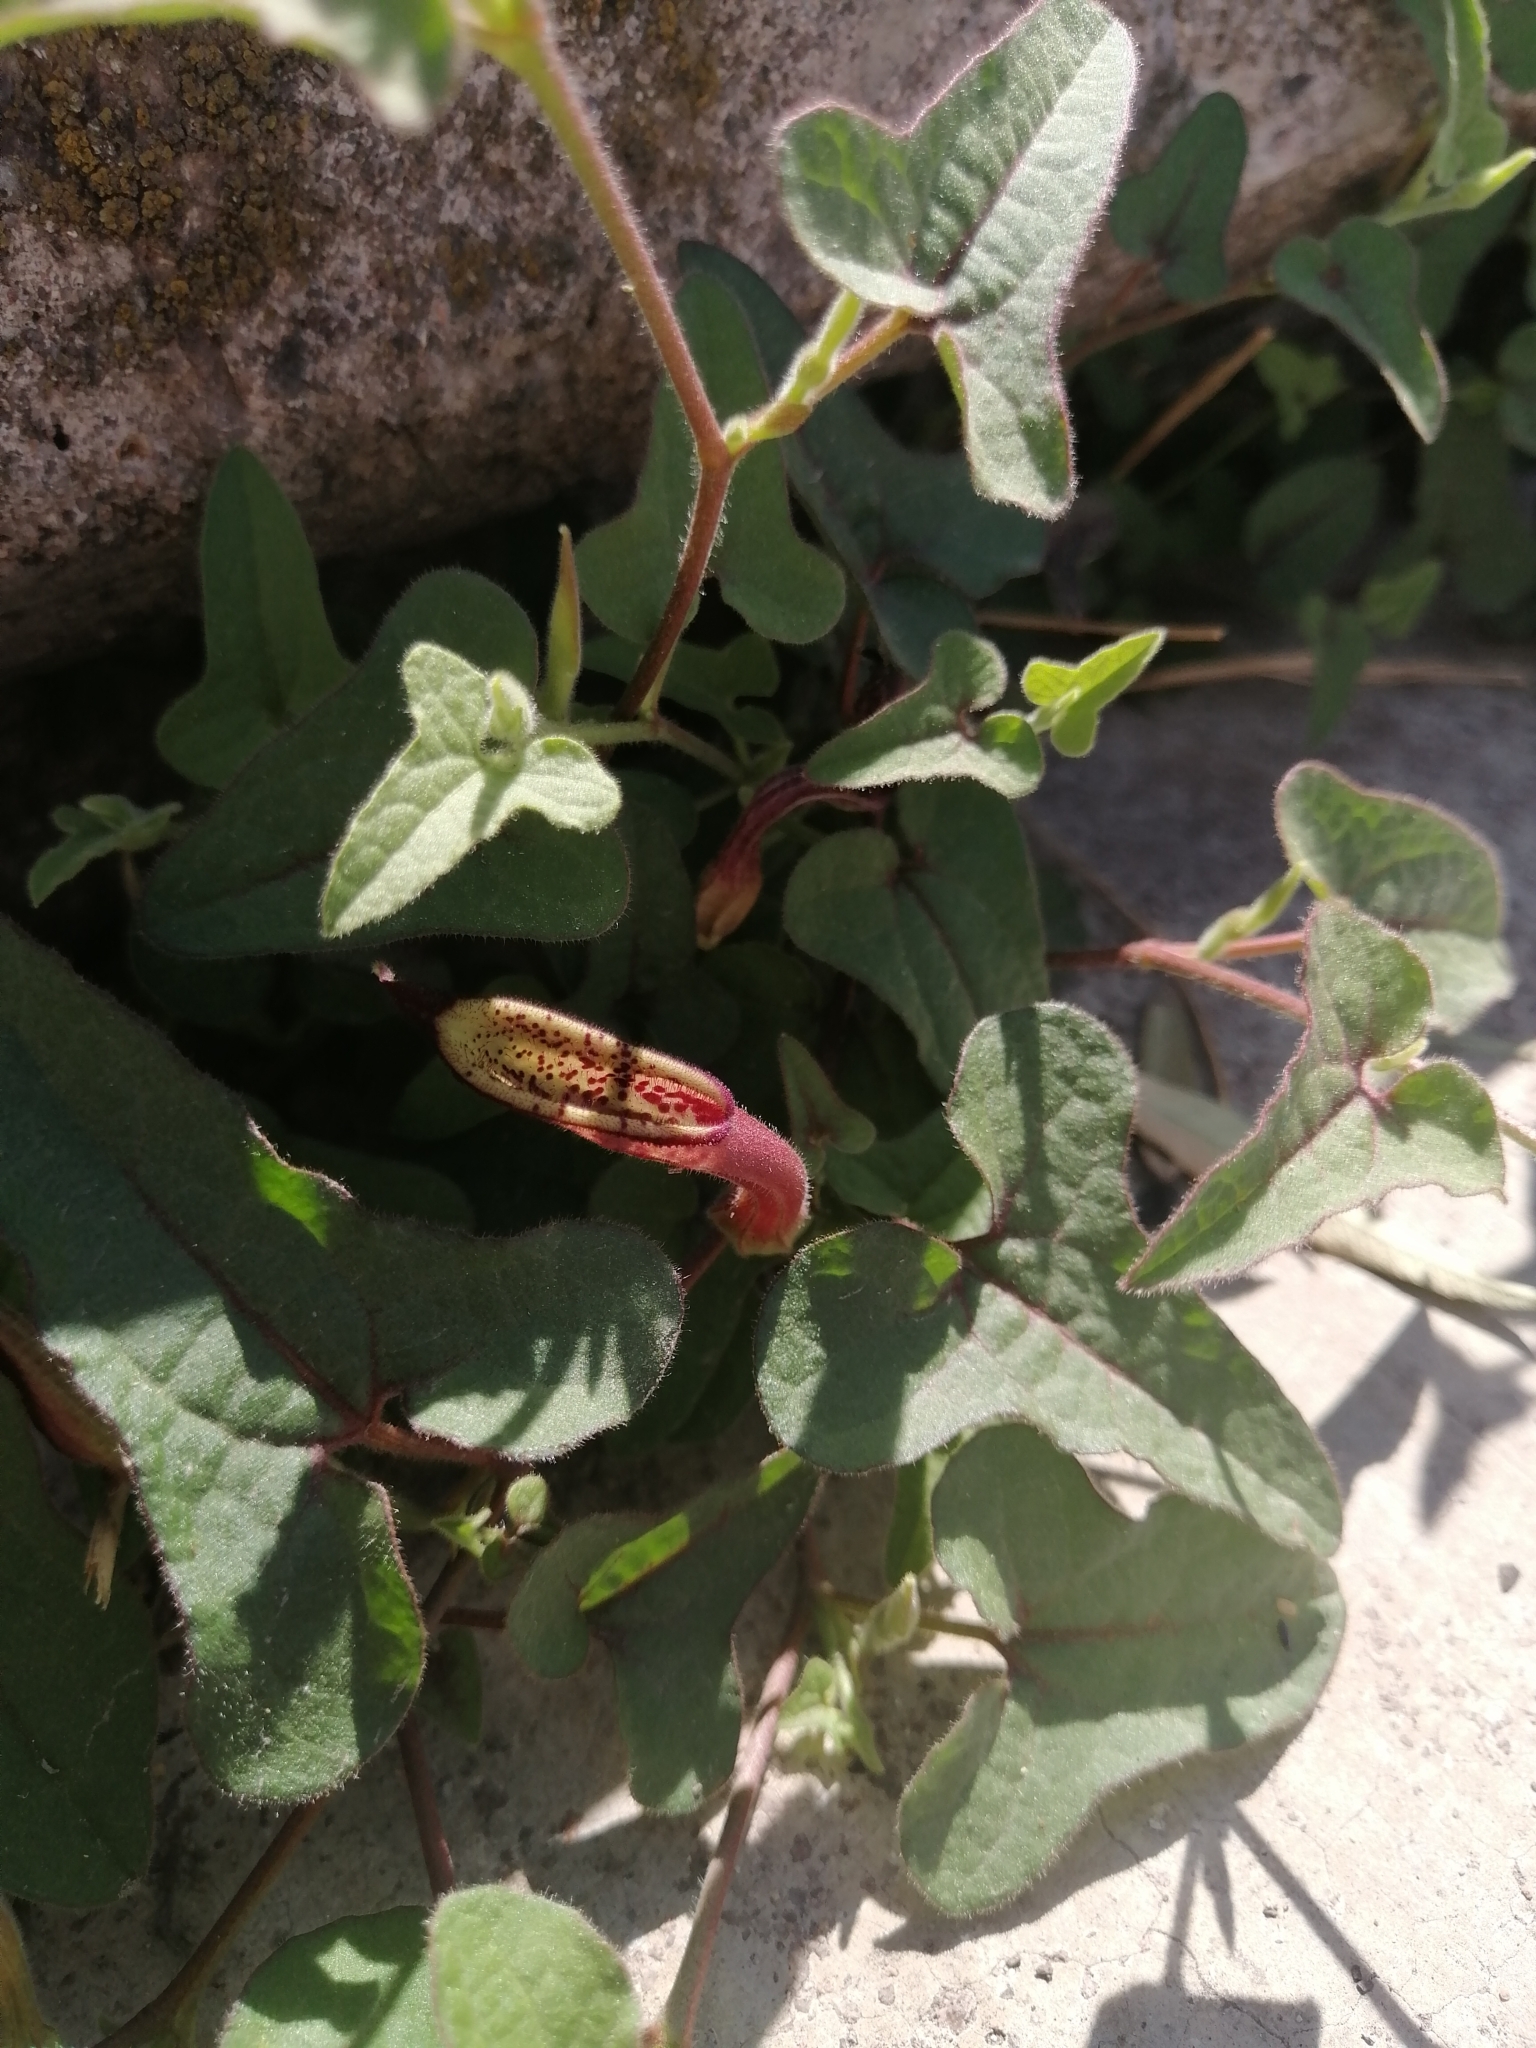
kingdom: Plantae
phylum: Tracheophyta
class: Magnoliopsida
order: Piperales
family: Aristolochiaceae
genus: Aristolochia
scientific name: Aristolochia versabilifolia
